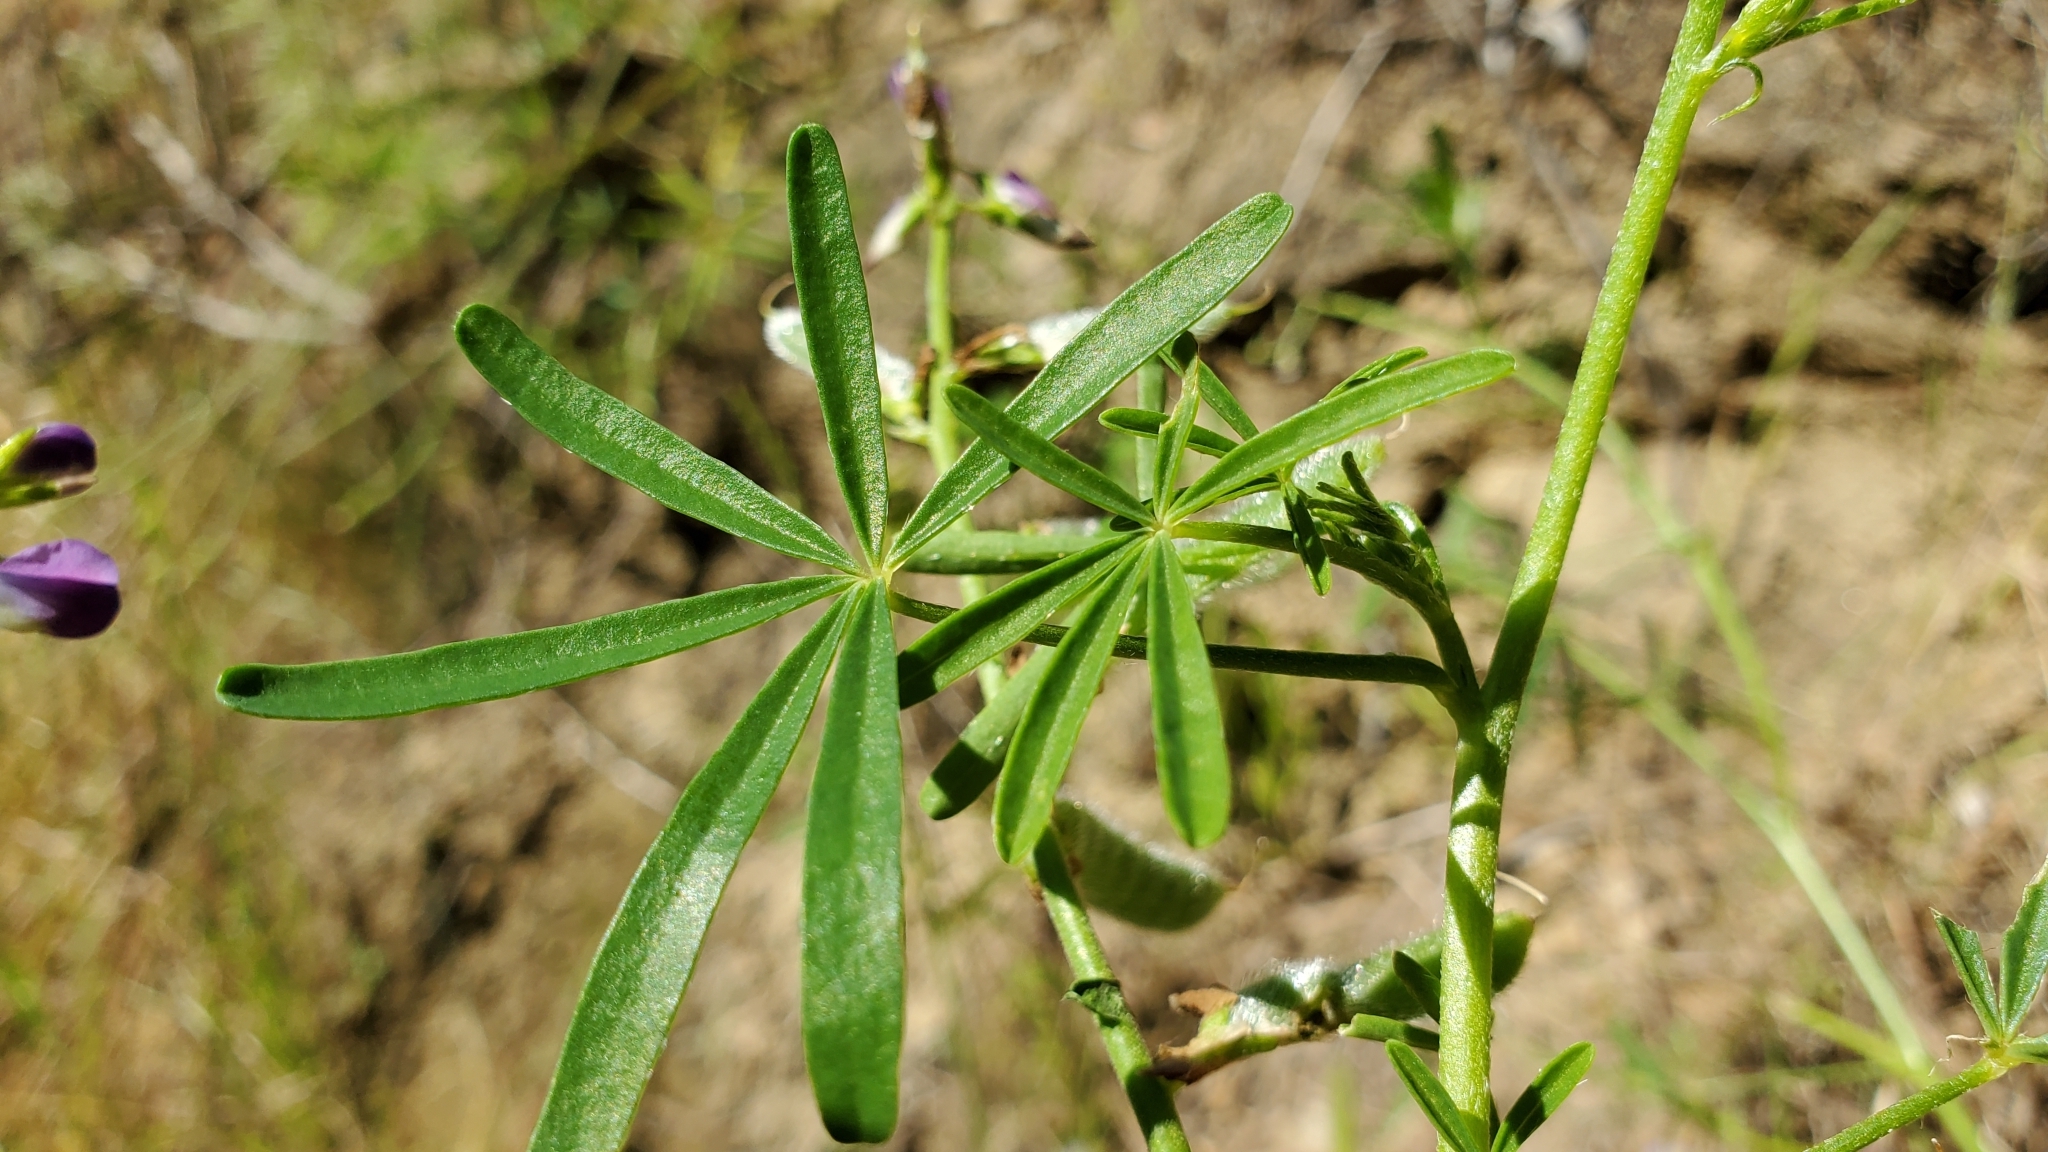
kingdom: Plantae
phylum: Tracheophyta
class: Magnoliopsida
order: Fabales
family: Fabaceae
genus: Lupinus
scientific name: Lupinus truncatus
